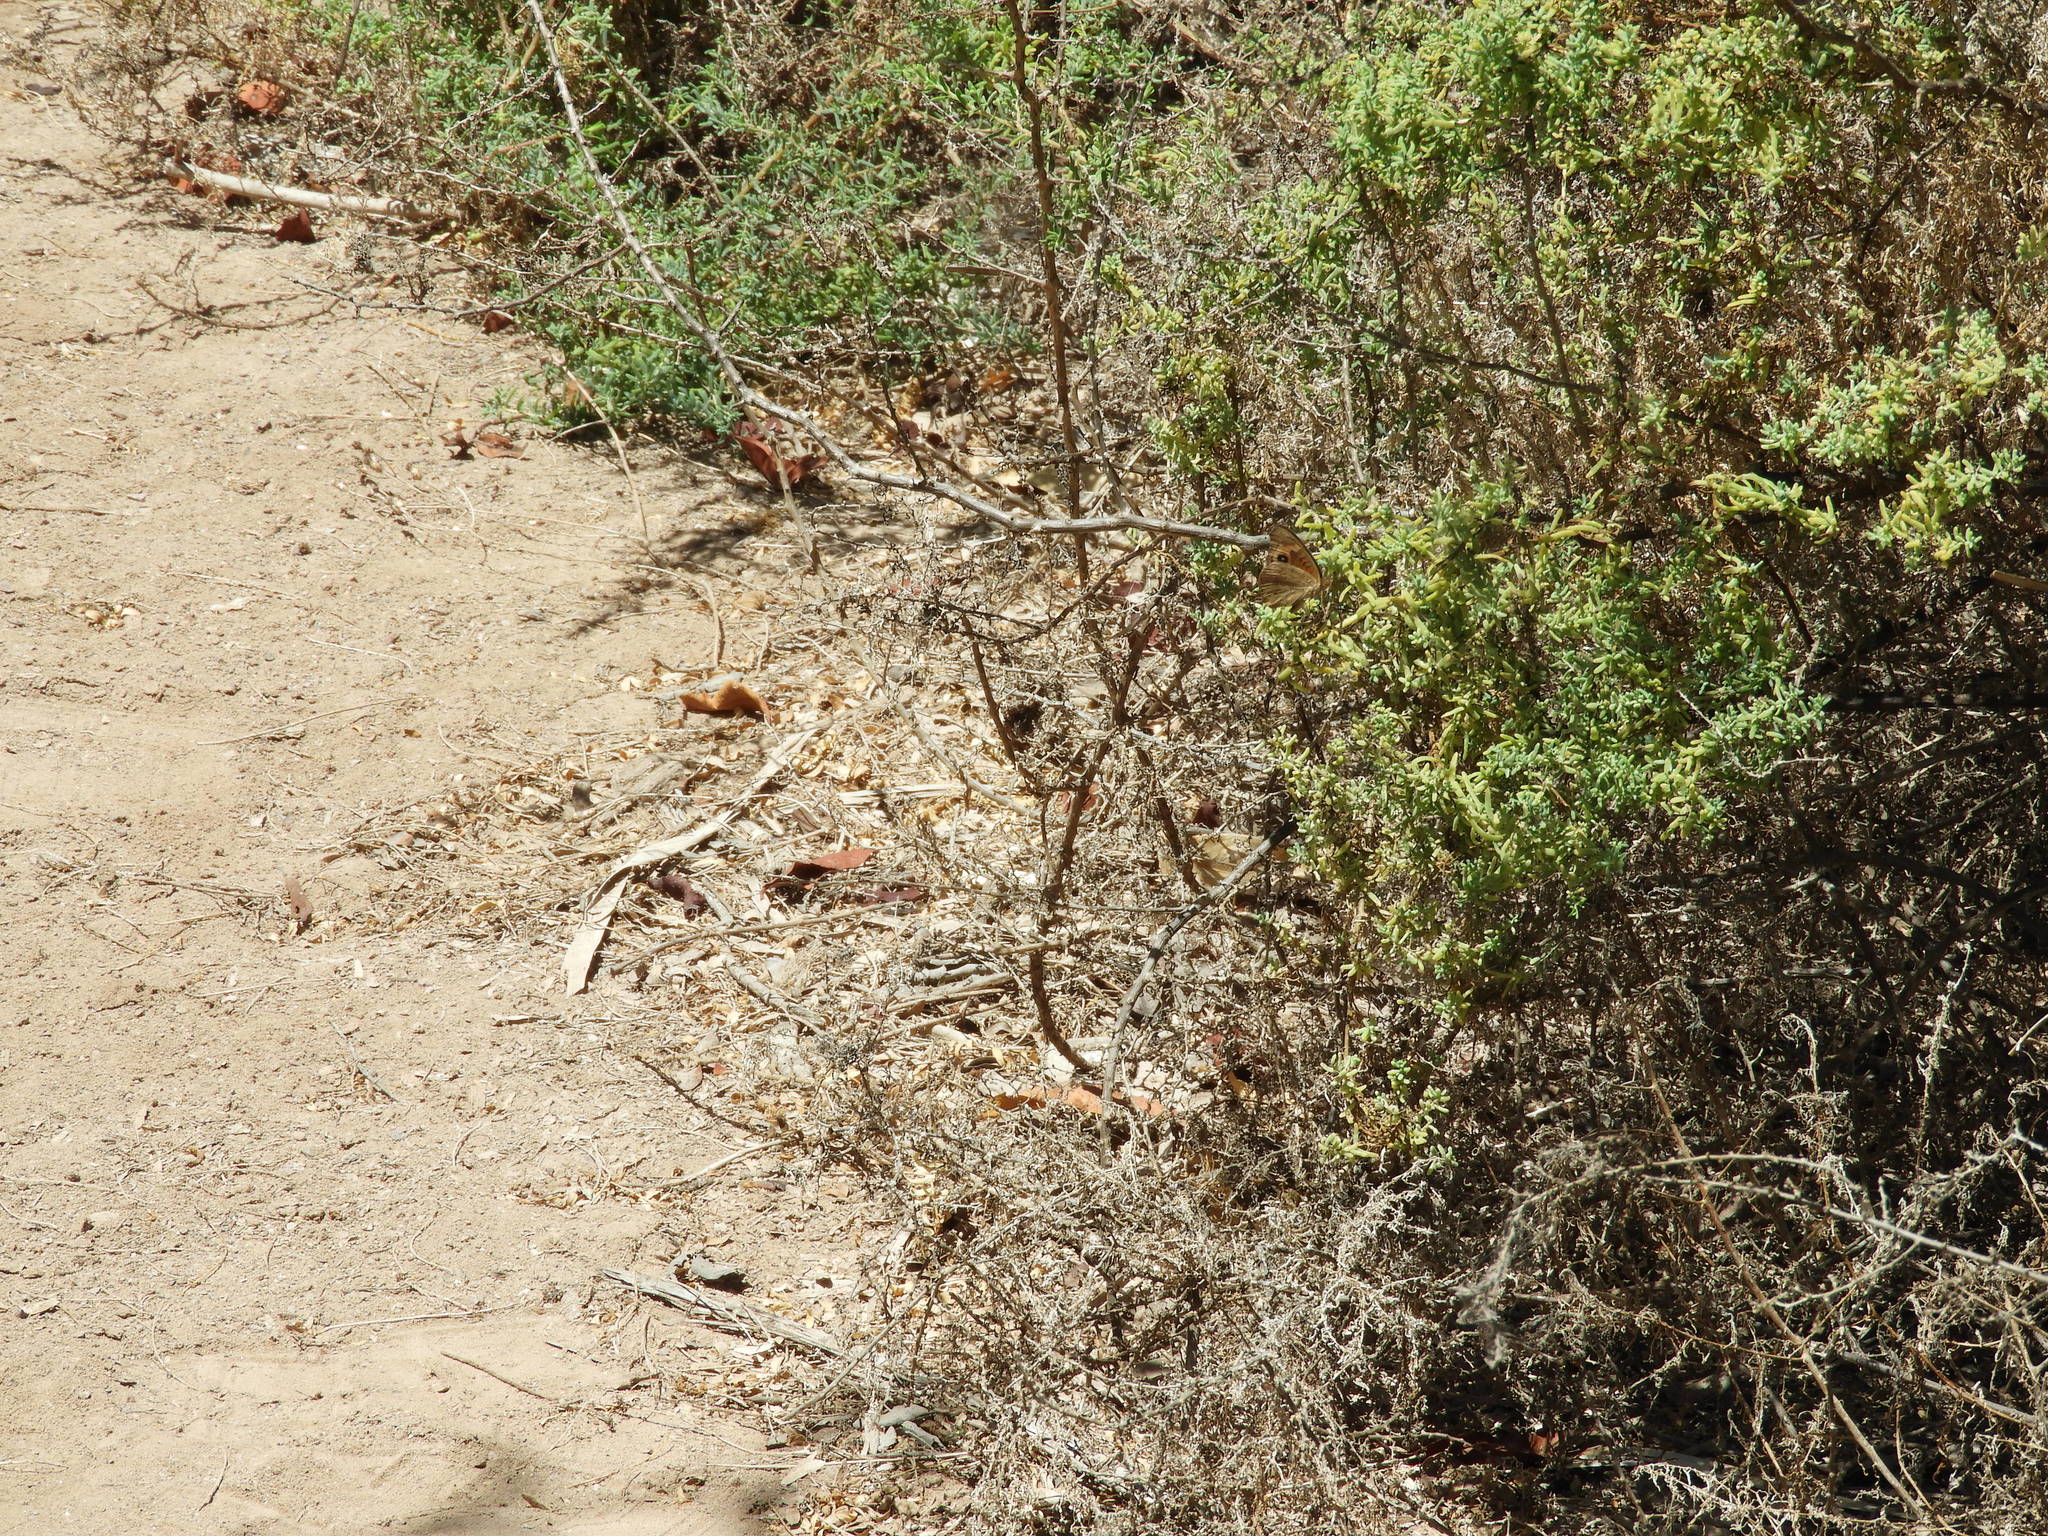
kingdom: Animalia
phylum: Arthropoda
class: Insecta
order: Lepidoptera
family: Nymphalidae
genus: Junonia
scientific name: Junonia pacoma
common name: Pacific mangrove buckeye
